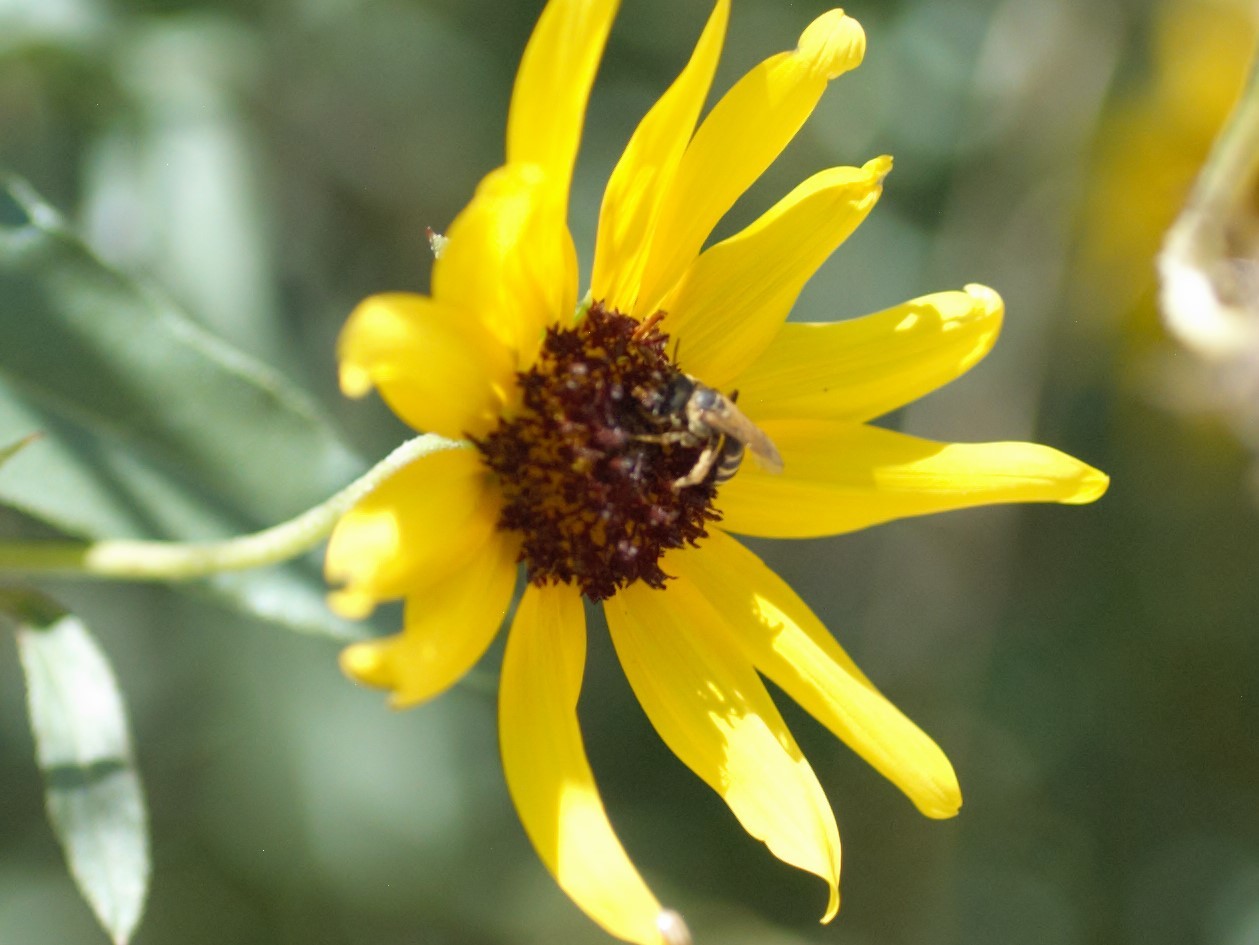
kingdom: Animalia
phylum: Arthropoda
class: Insecta
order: Hymenoptera
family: Halictidae
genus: Halictus
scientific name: Halictus ligatus
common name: Ligated furrow bee
